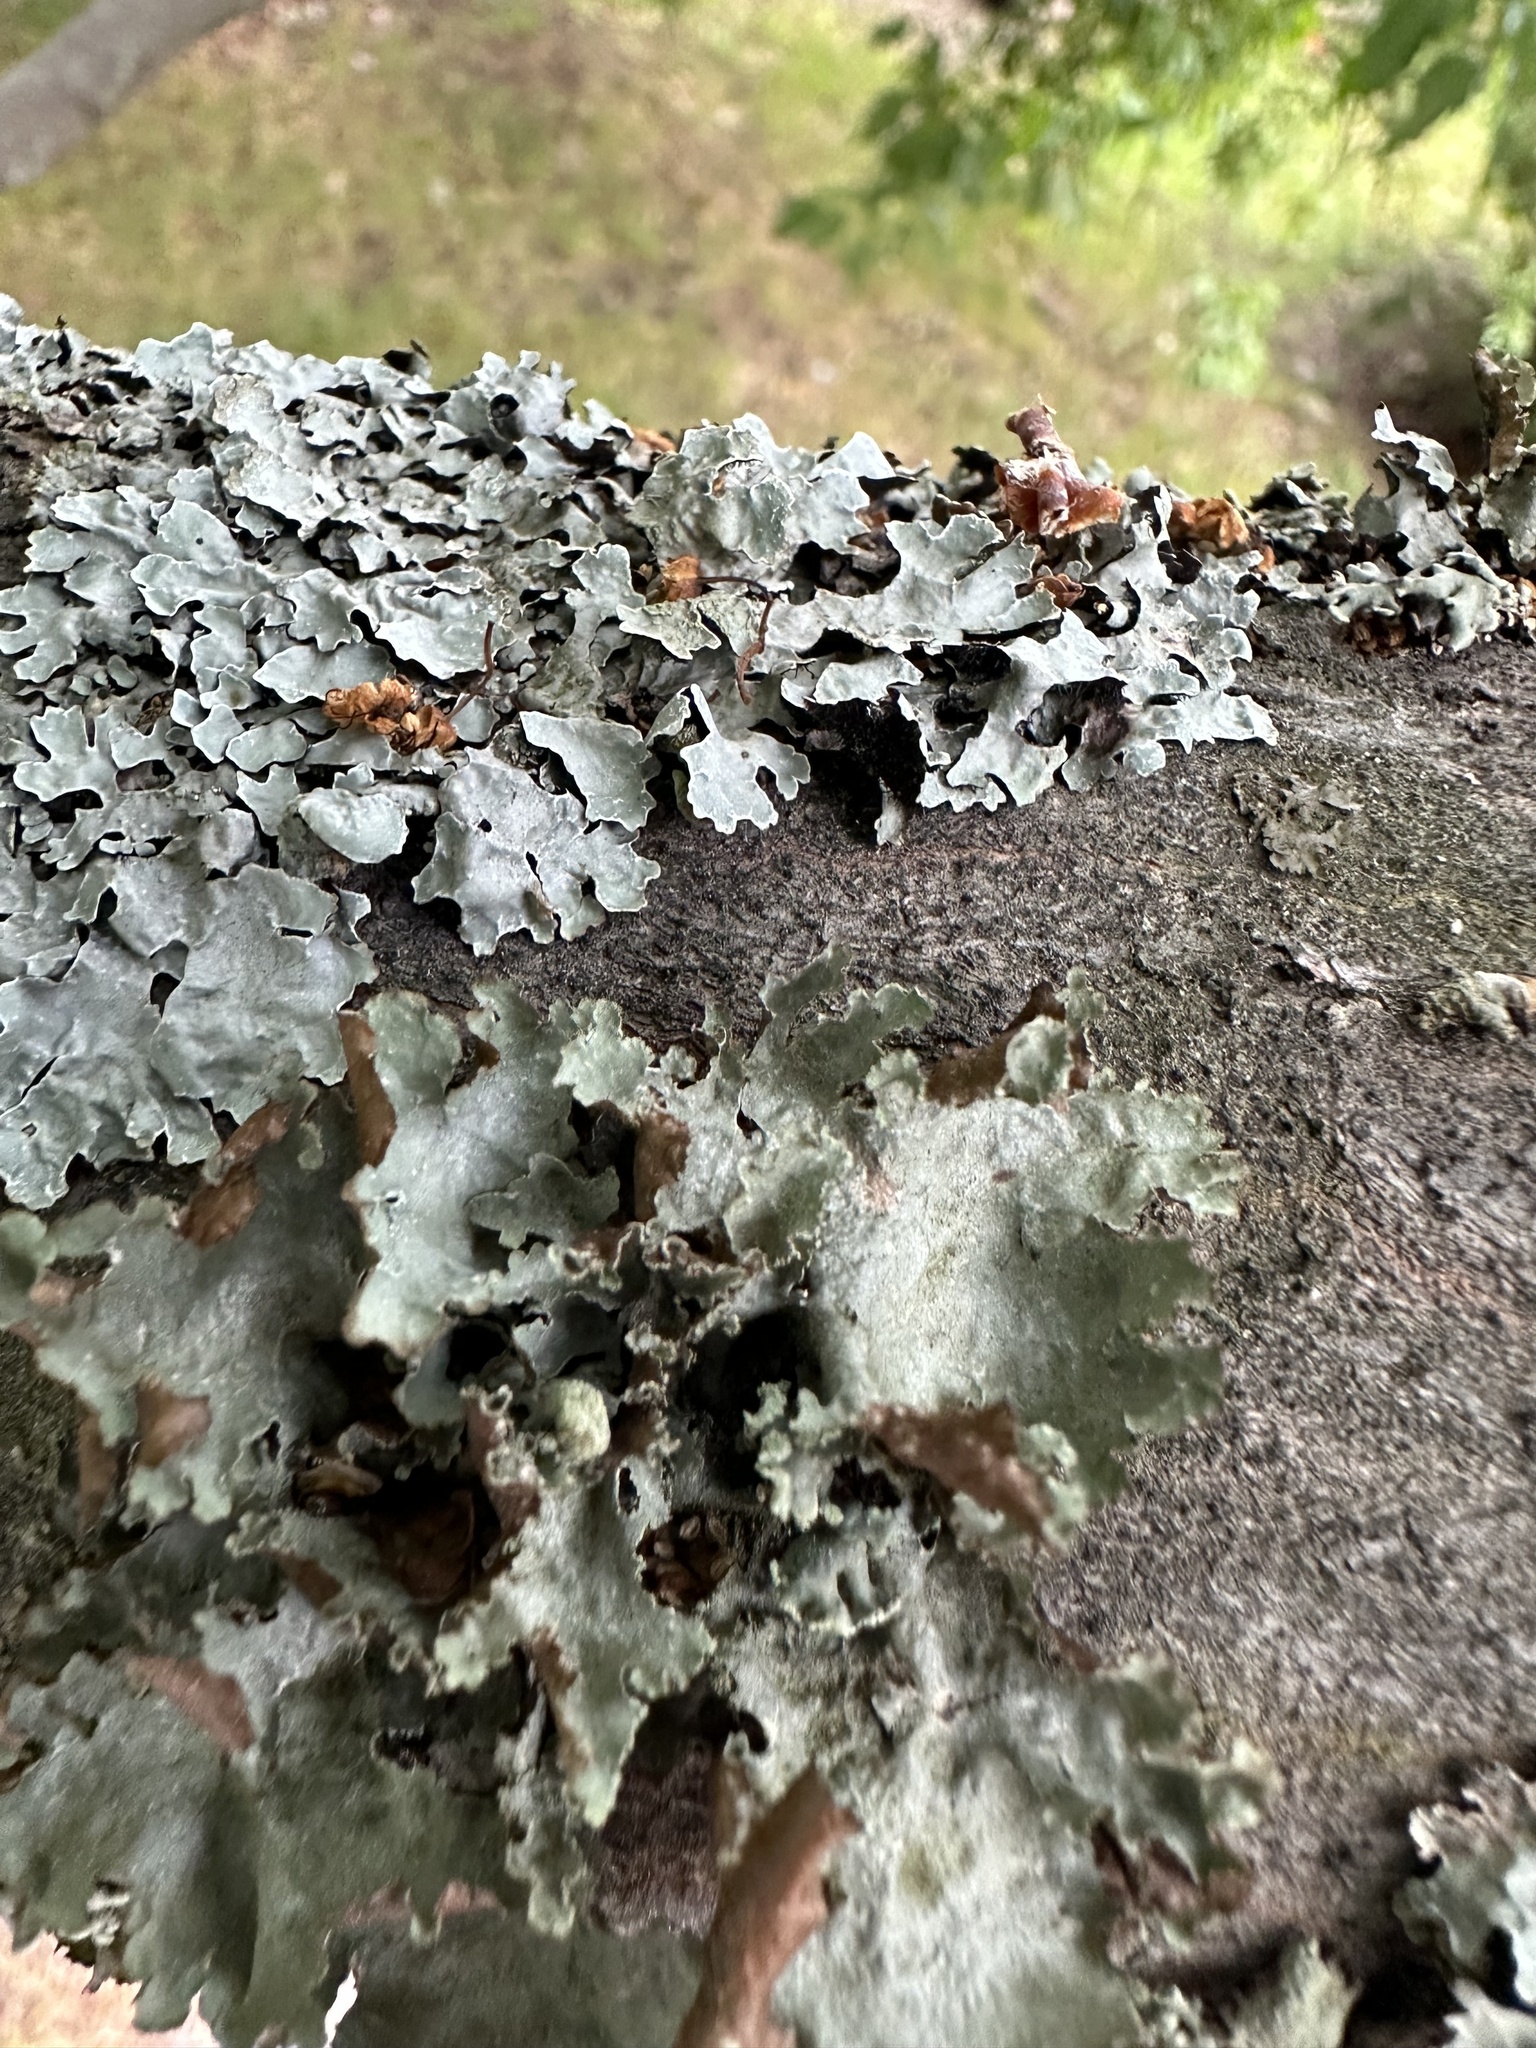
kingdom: Fungi
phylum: Ascomycota
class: Lecanoromycetes
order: Lecanorales
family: Parmeliaceae
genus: Platismatia
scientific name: Platismatia glauca
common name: Varied rag lichen
